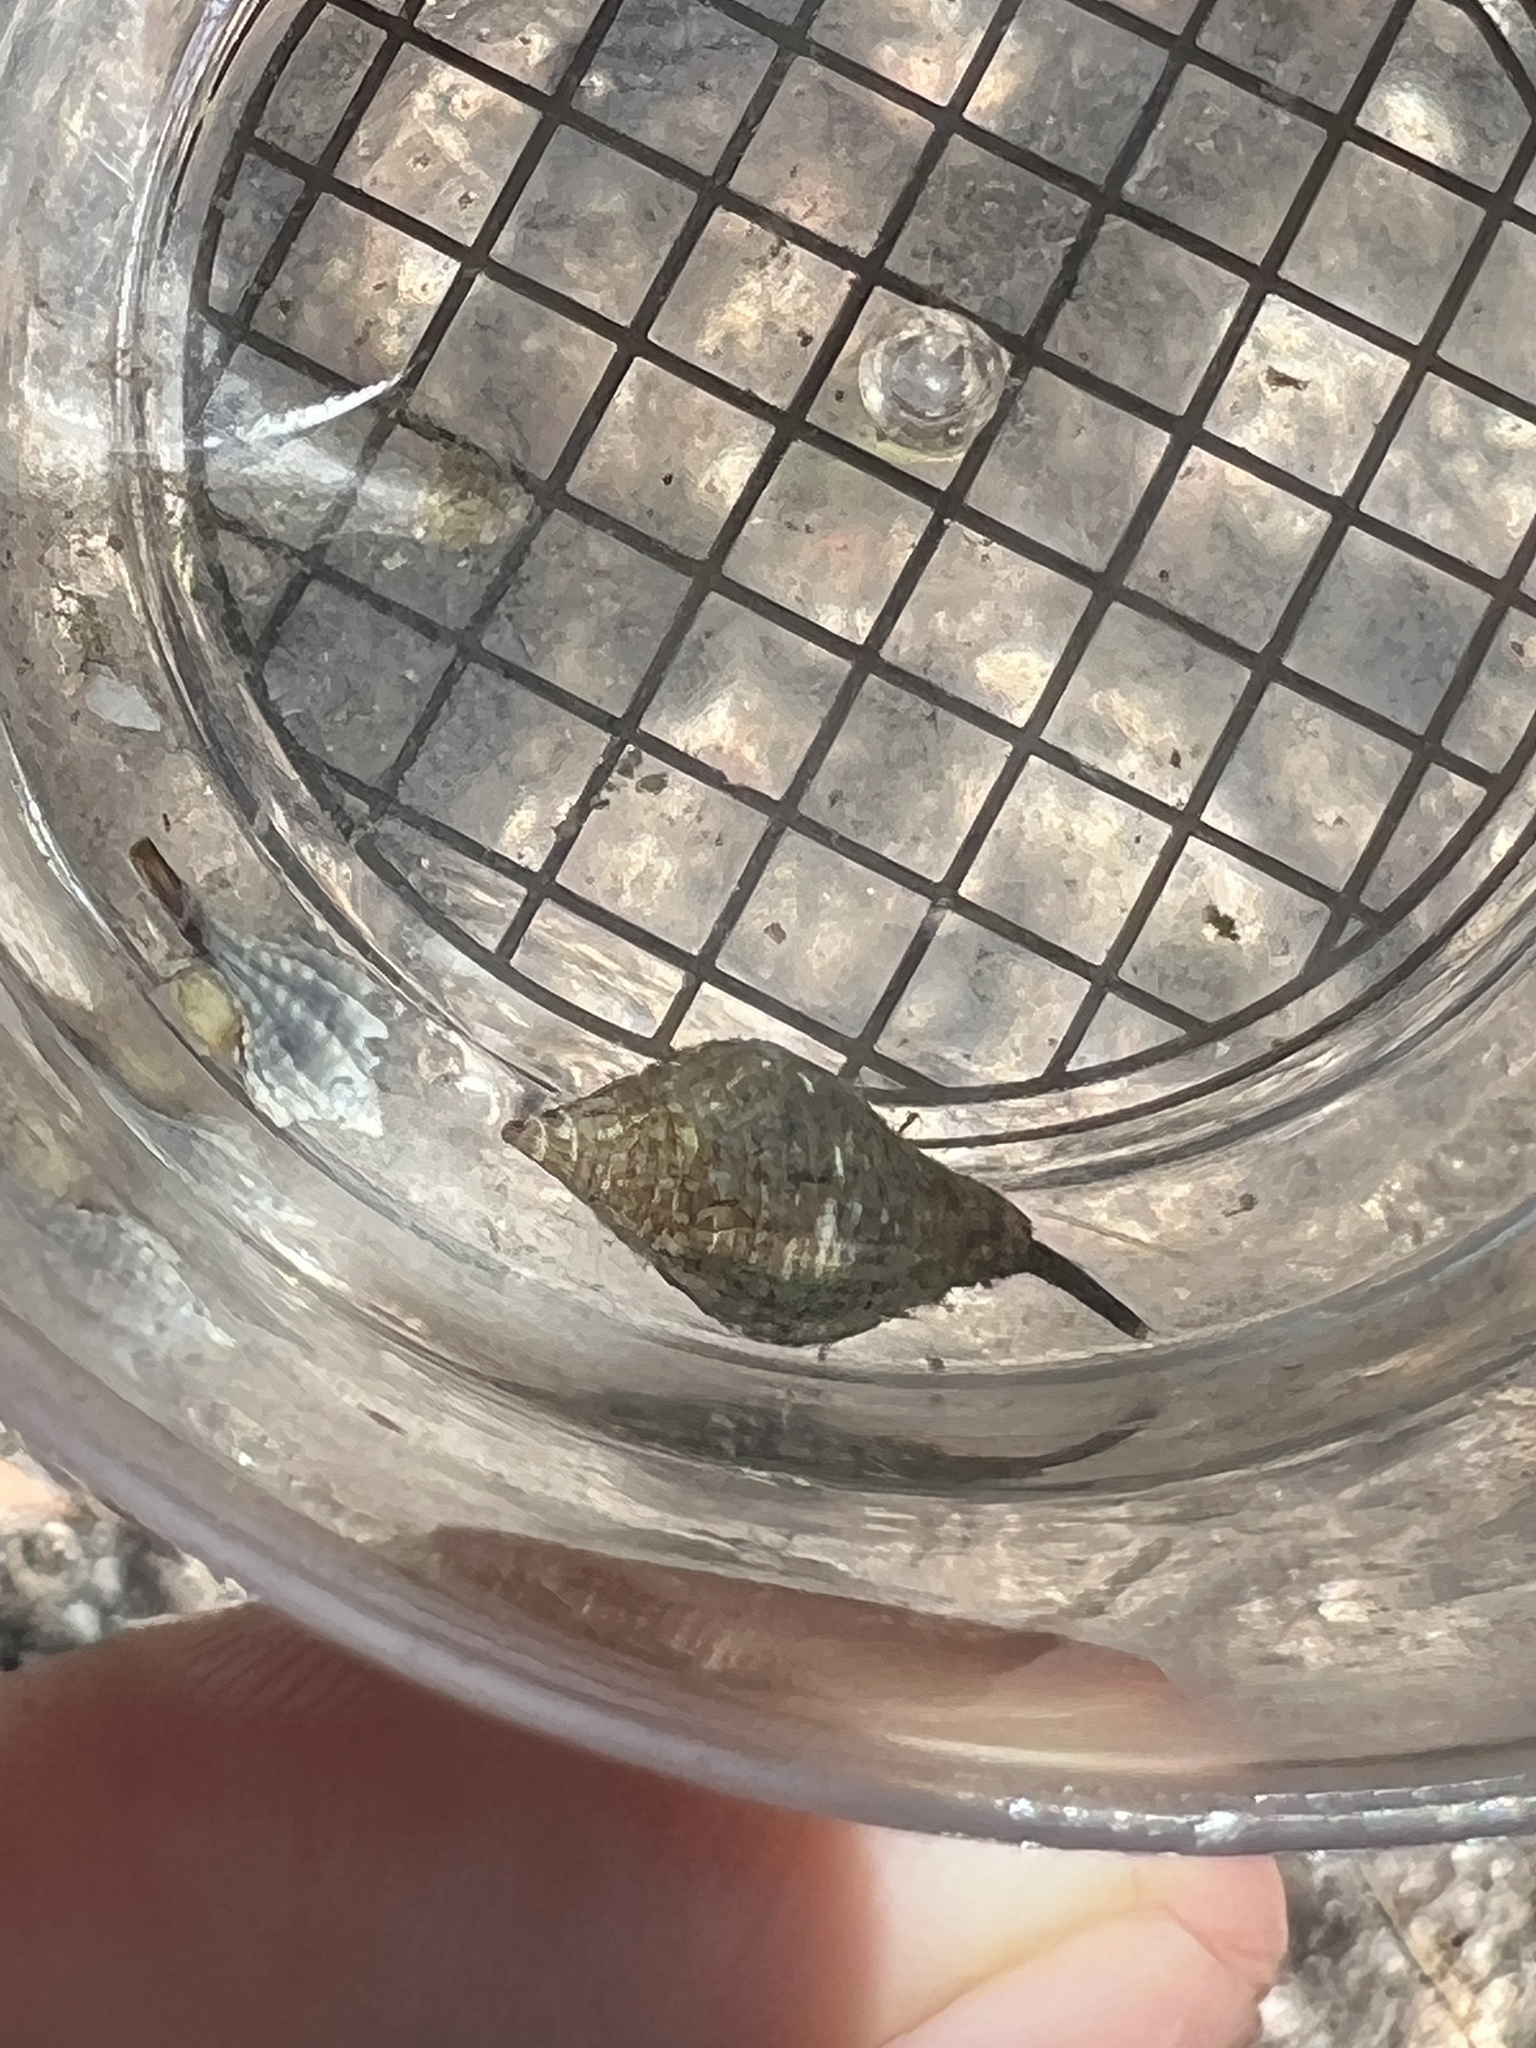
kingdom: Animalia
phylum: Mollusca
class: Gastropoda
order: Neogastropoda
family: Pisaniidae
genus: Gemophos
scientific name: Gemophos tinctus
